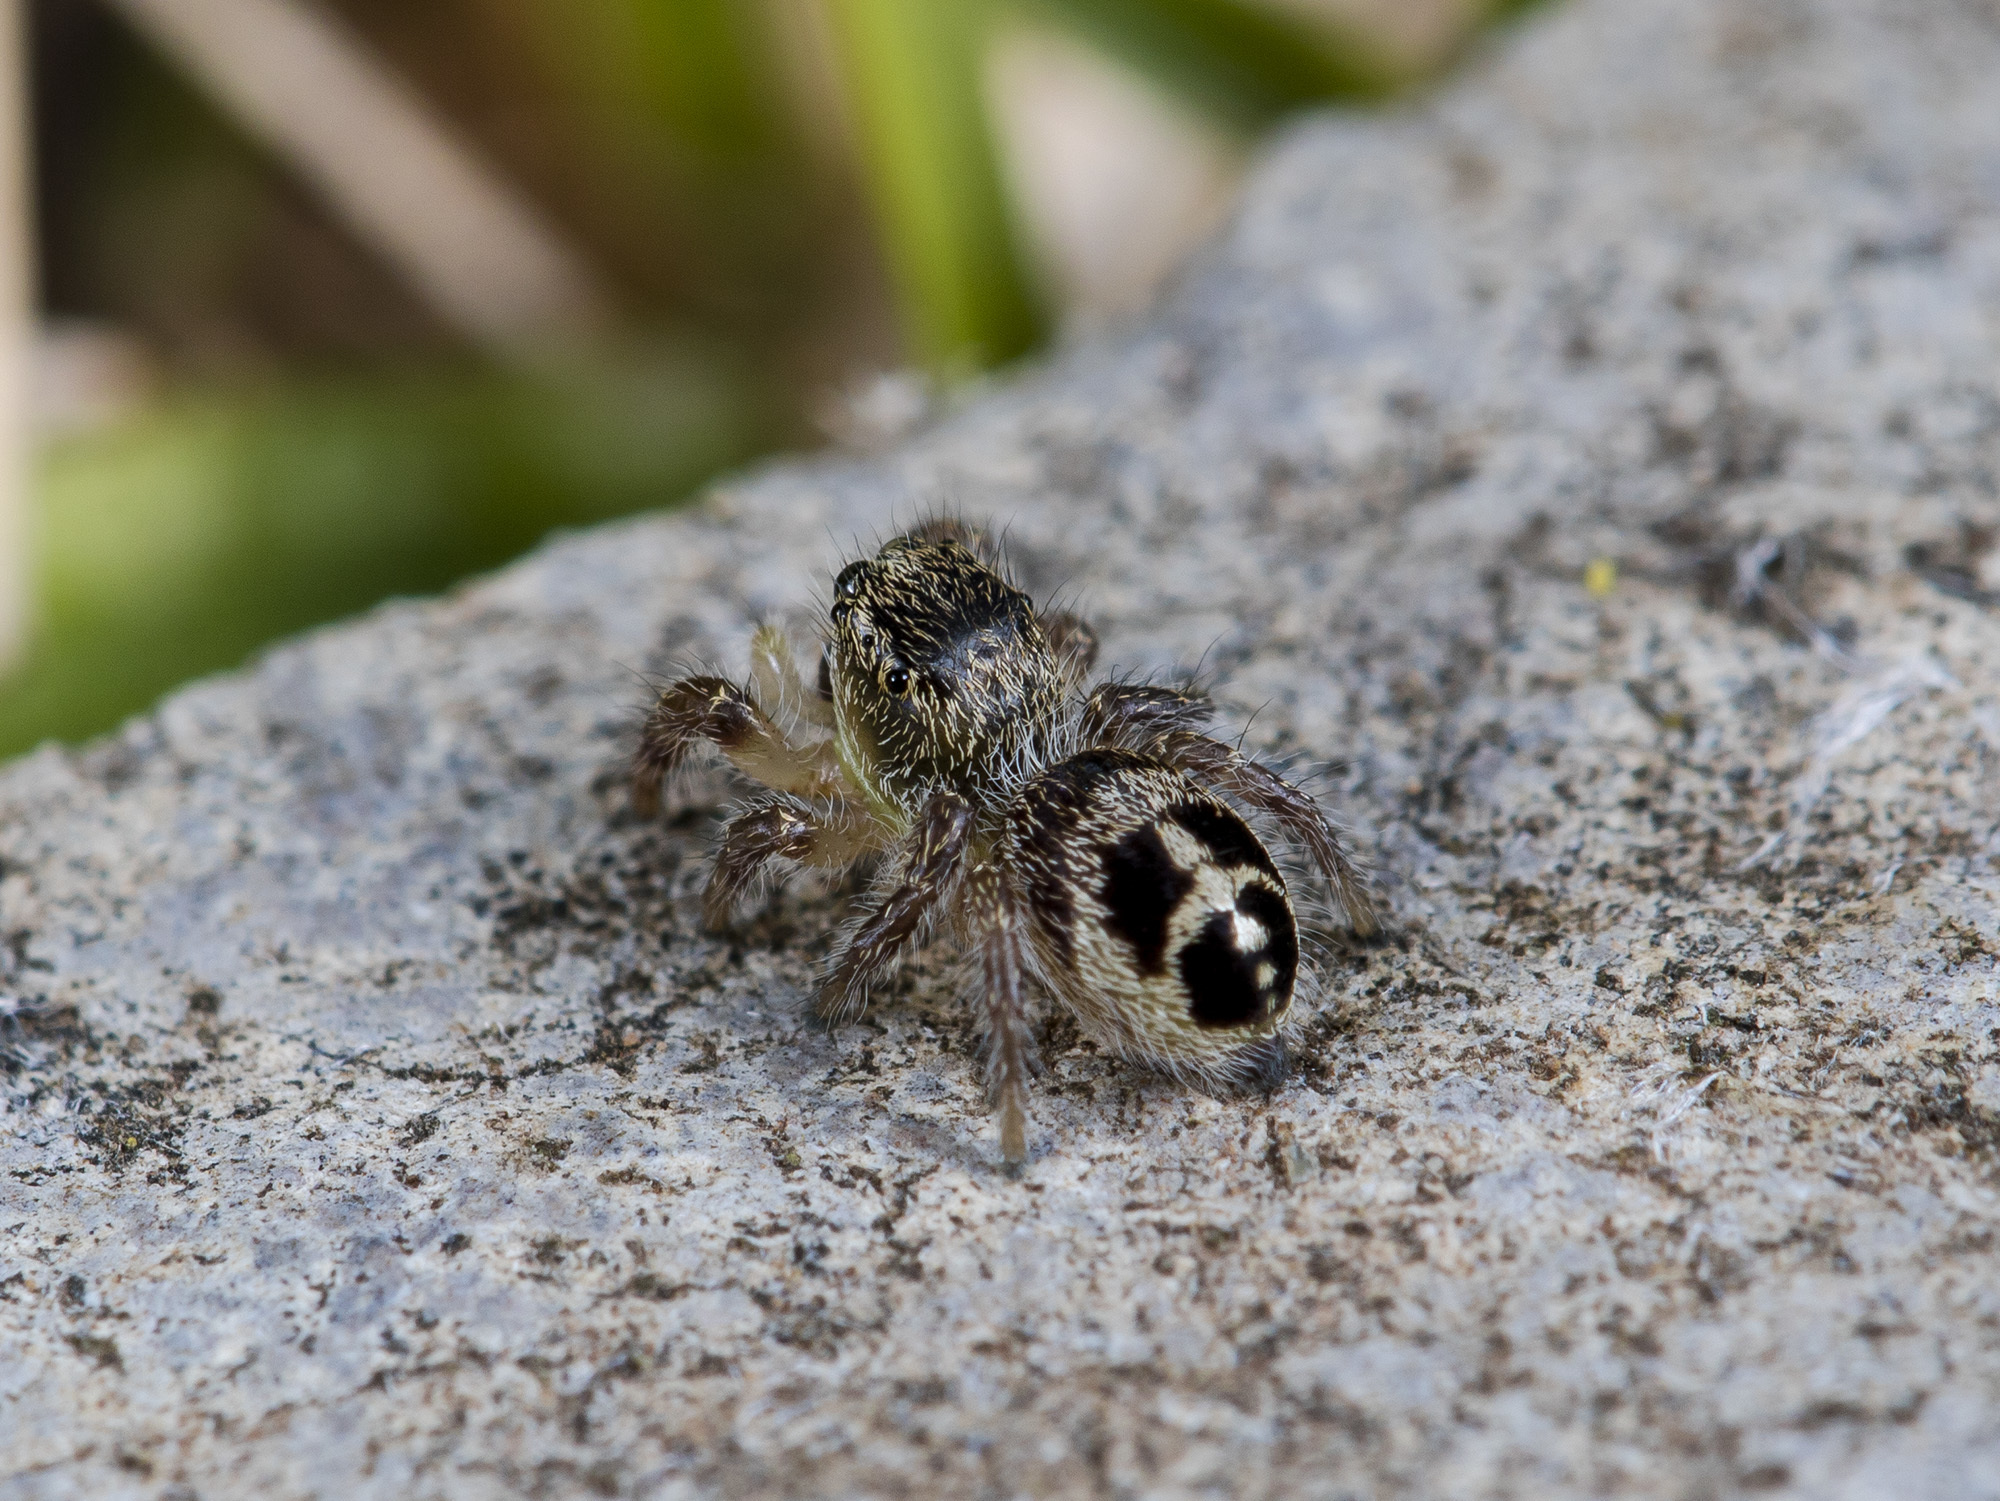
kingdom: Animalia
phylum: Arthropoda
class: Arachnida
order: Araneae
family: Salticidae
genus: Pellenes
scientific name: Pellenes sibiricus
